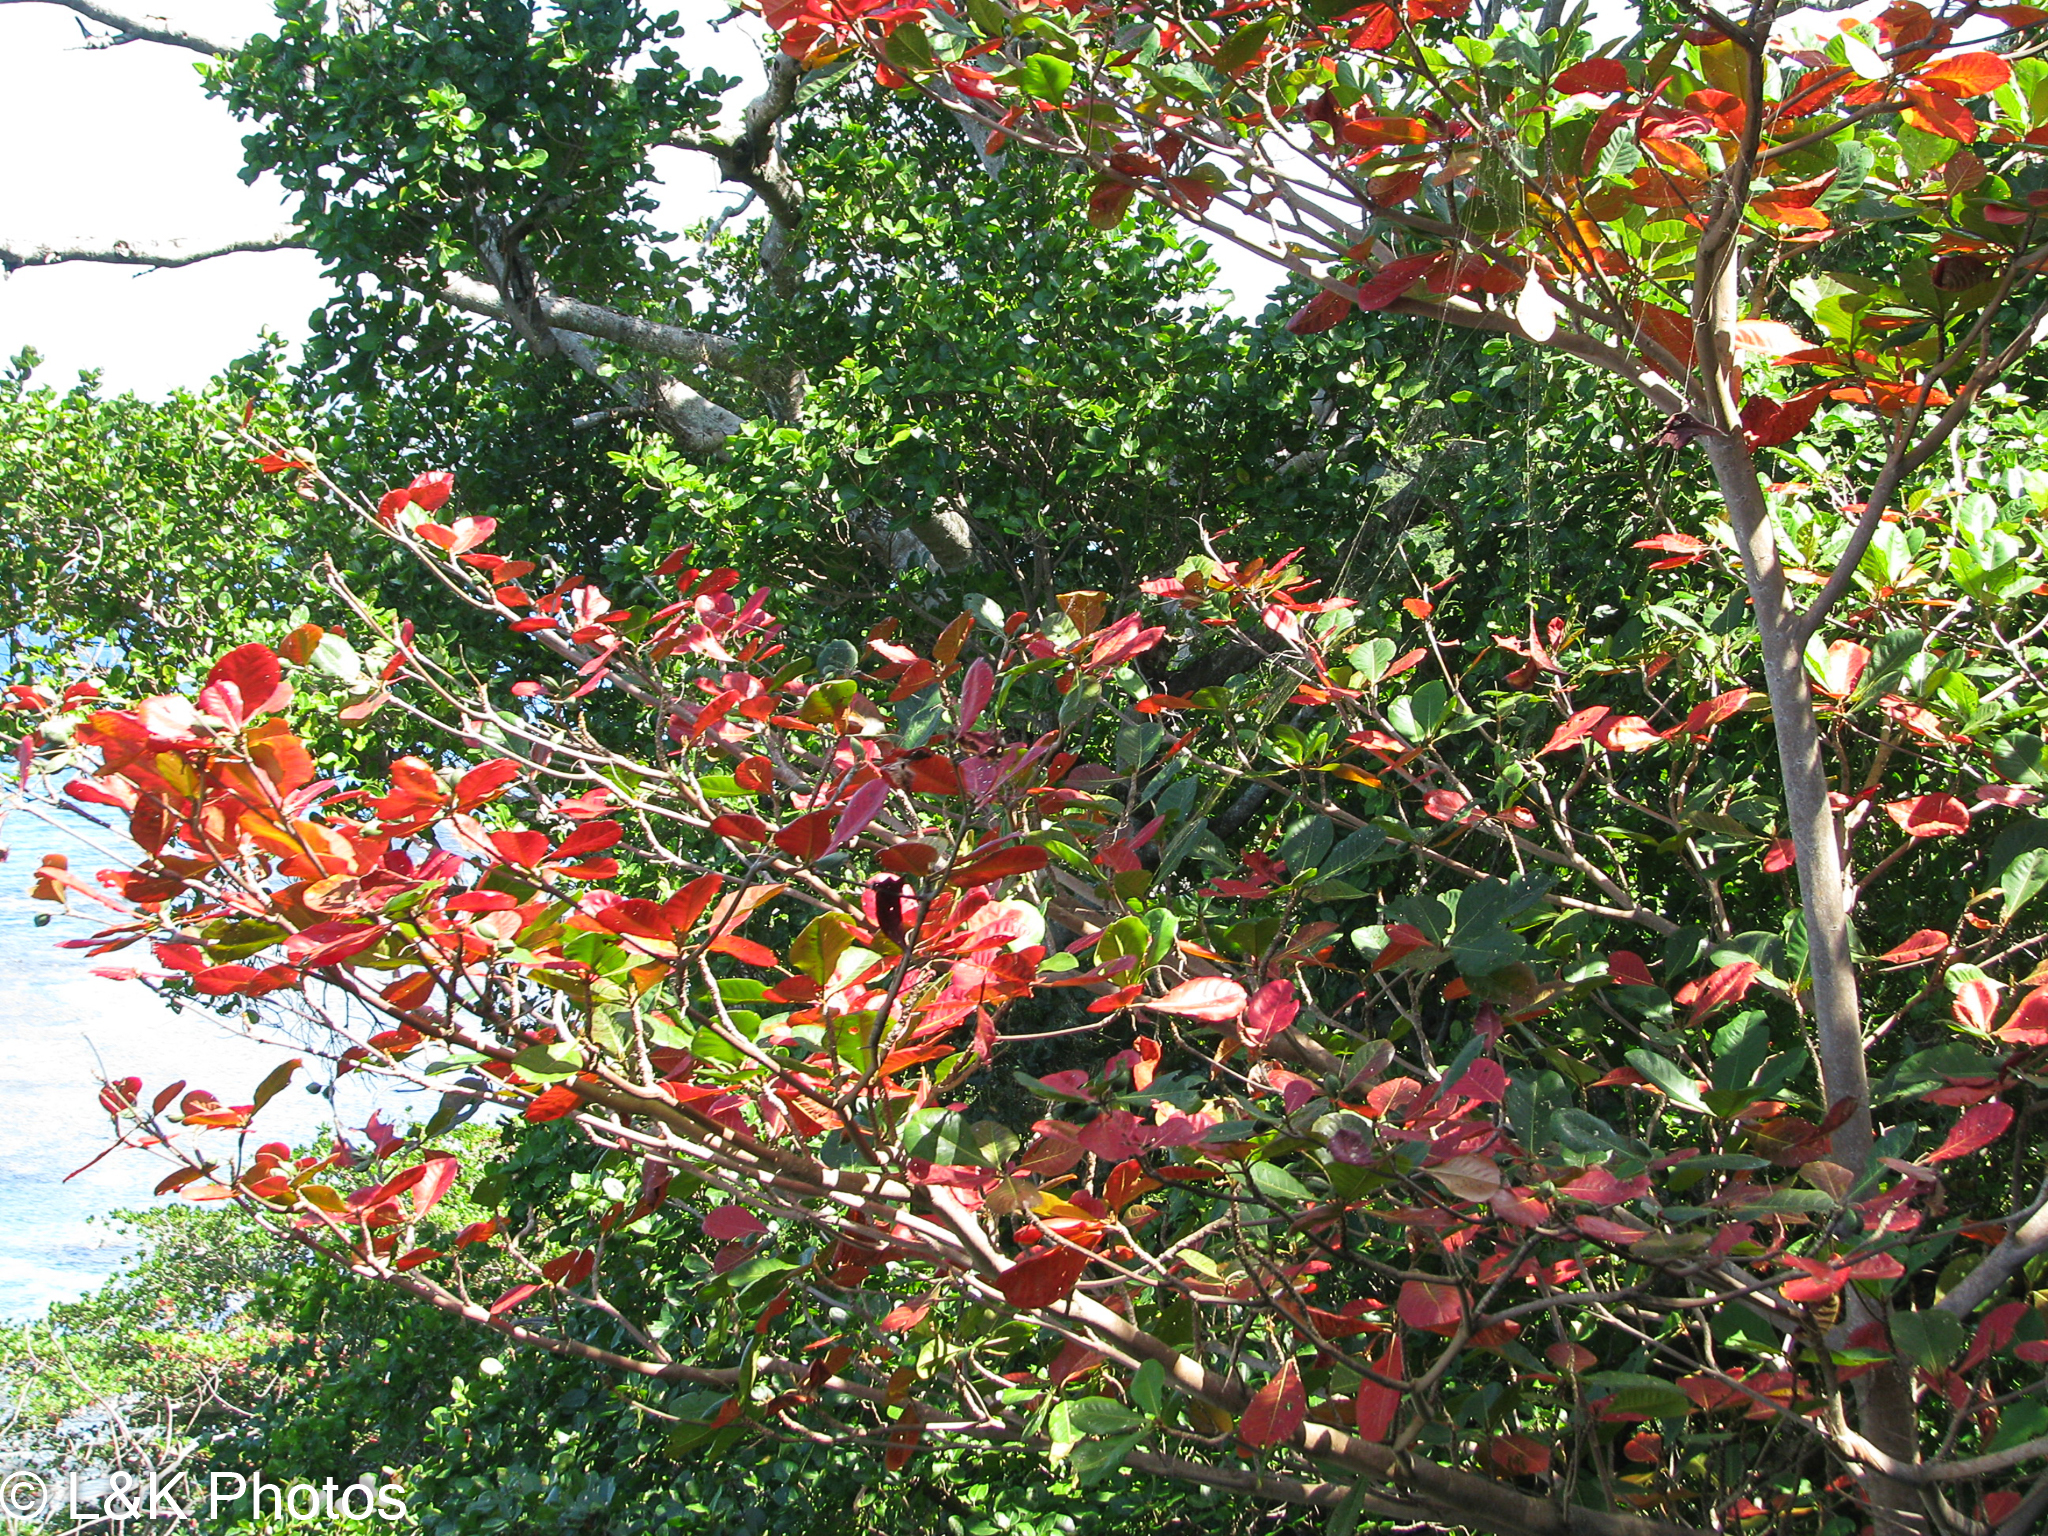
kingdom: Plantae
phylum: Tracheophyta
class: Magnoliopsida
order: Myrtales
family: Combretaceae
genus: Terminalia
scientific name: Terminalia catappa
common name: Tropical almond
